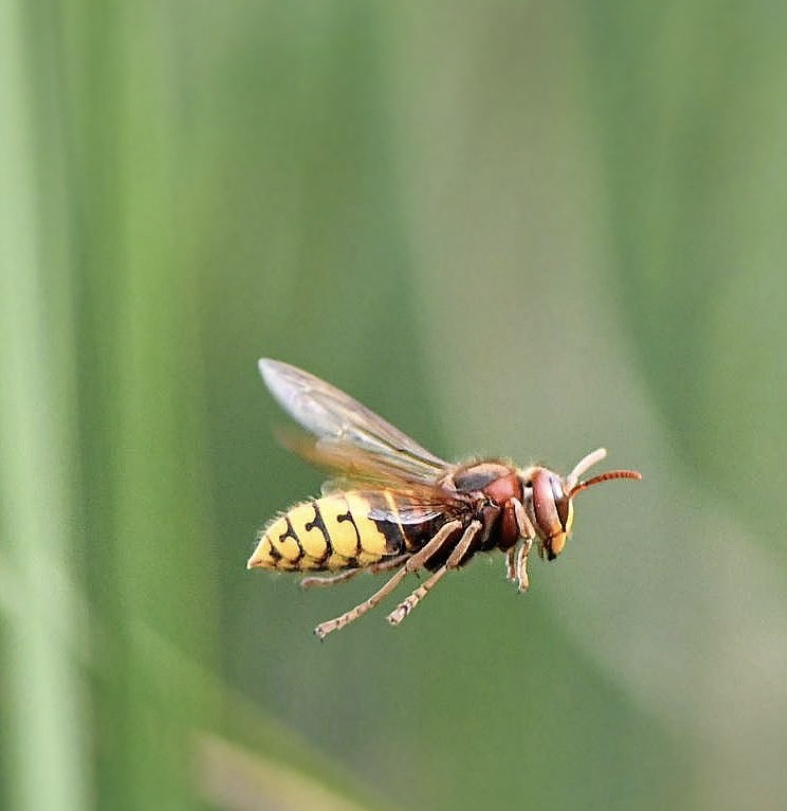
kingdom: Animalia
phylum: Arthropoda
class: Insecta
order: Hymenoptera
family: Vespidae
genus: Vespa
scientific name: Vespa crabro
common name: Hornet
